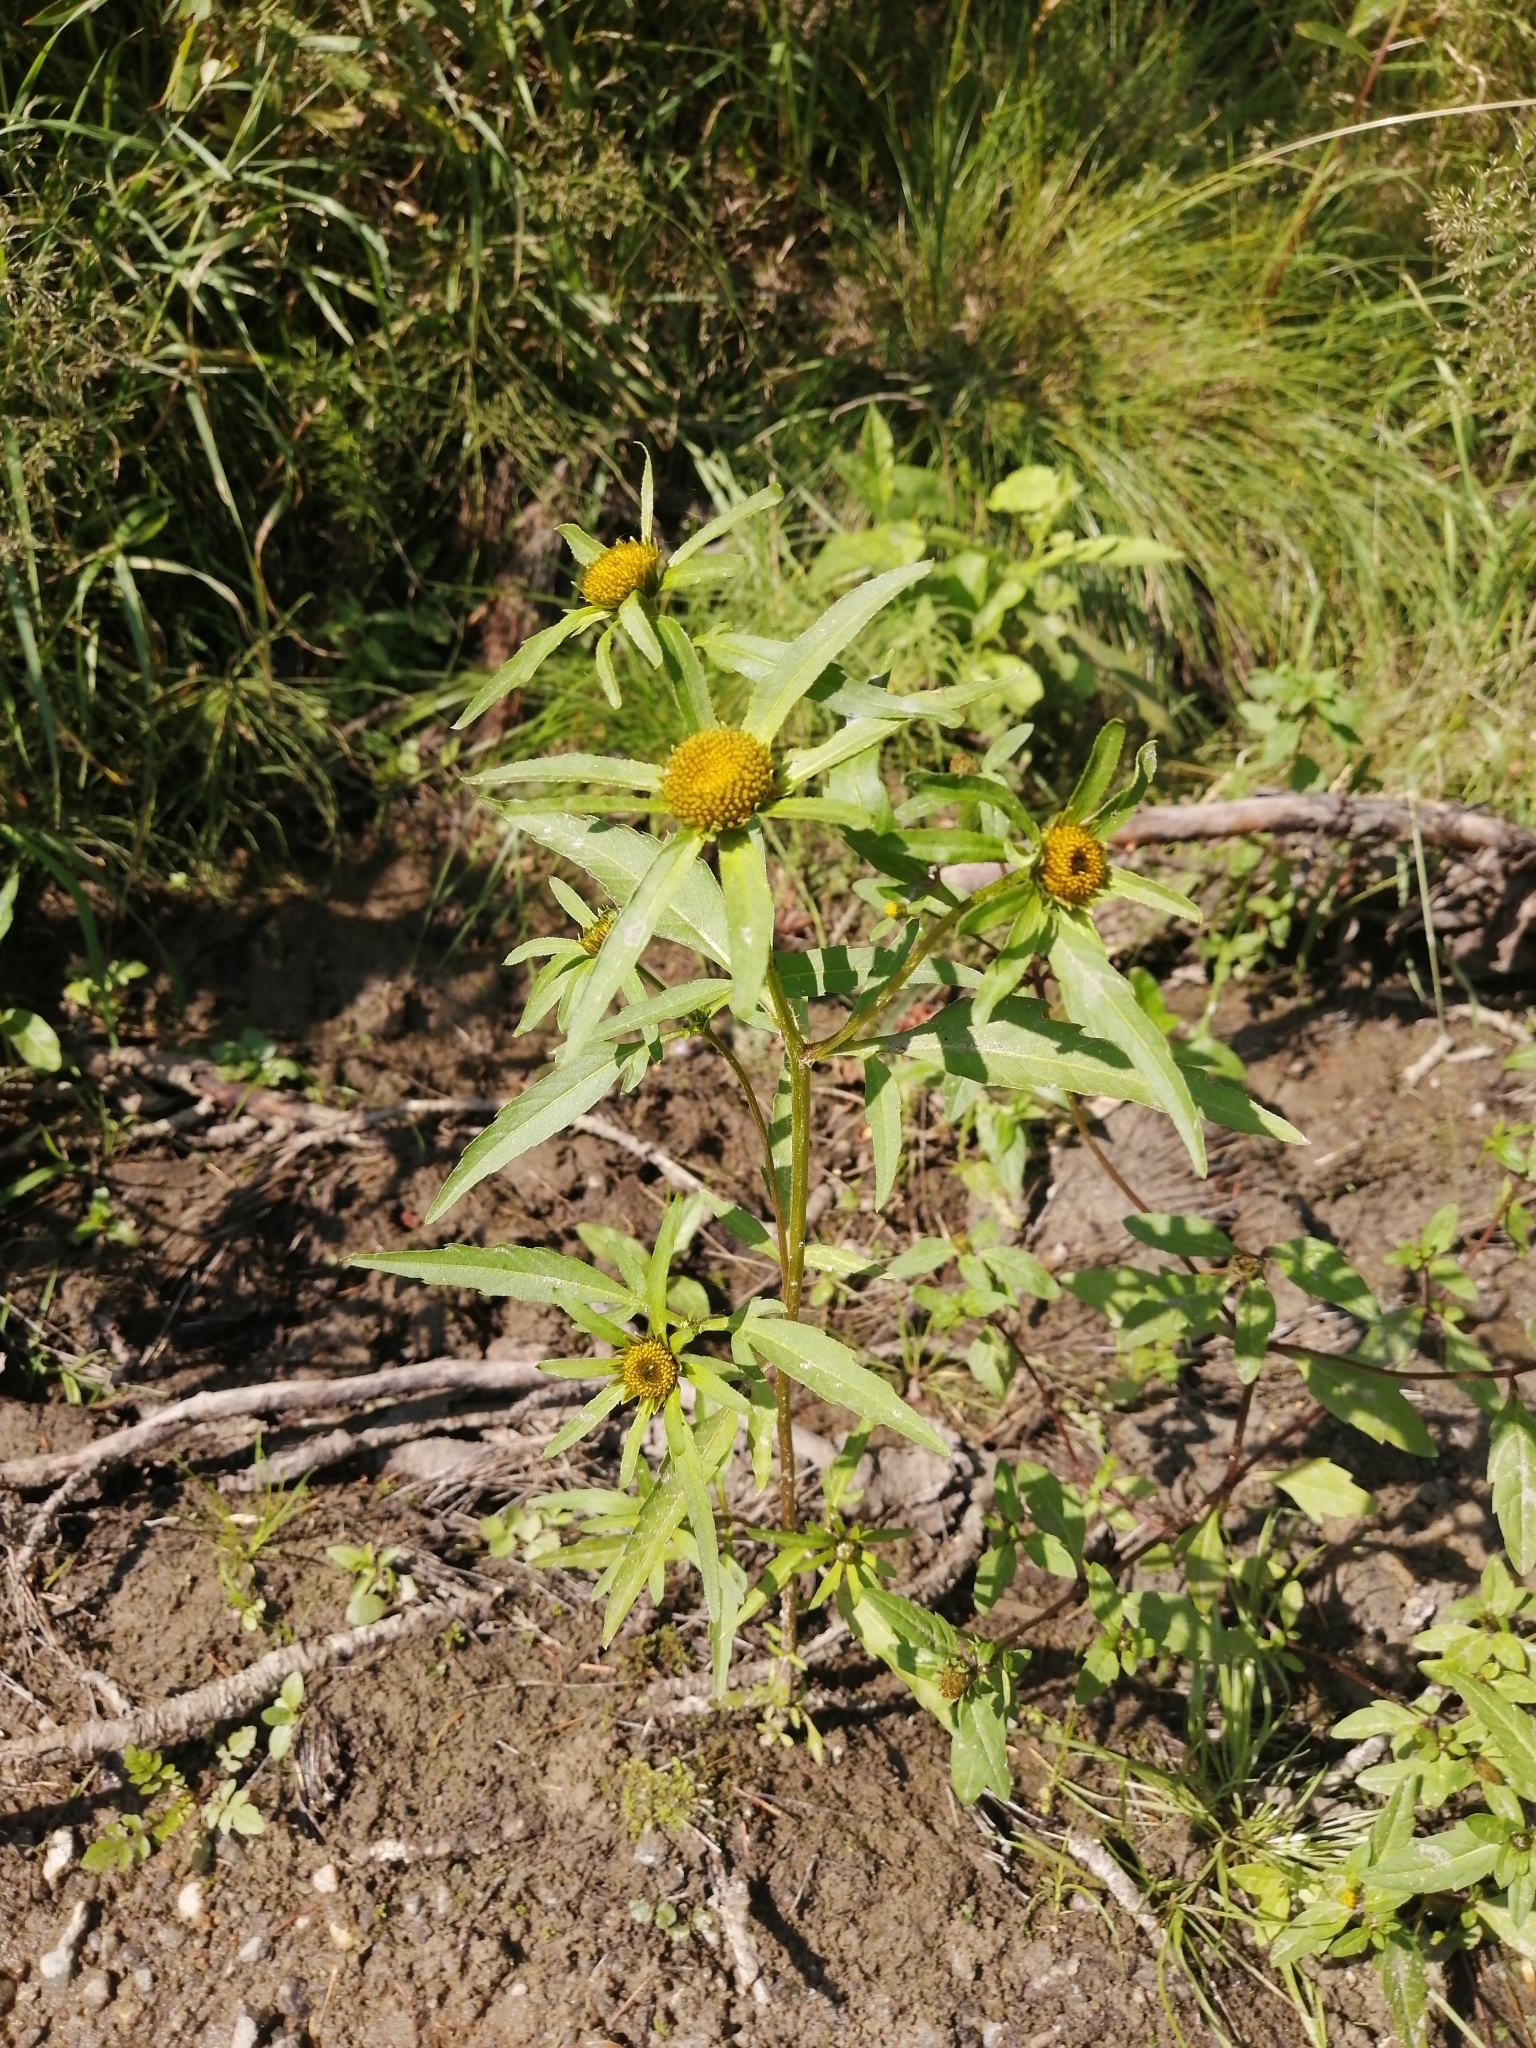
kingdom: Plantae
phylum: Tracheophyta
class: Magnoliopsida
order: Asterales
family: Asteraceae
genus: Bidens
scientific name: Bidens radiata
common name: Radiating bur-marigold
